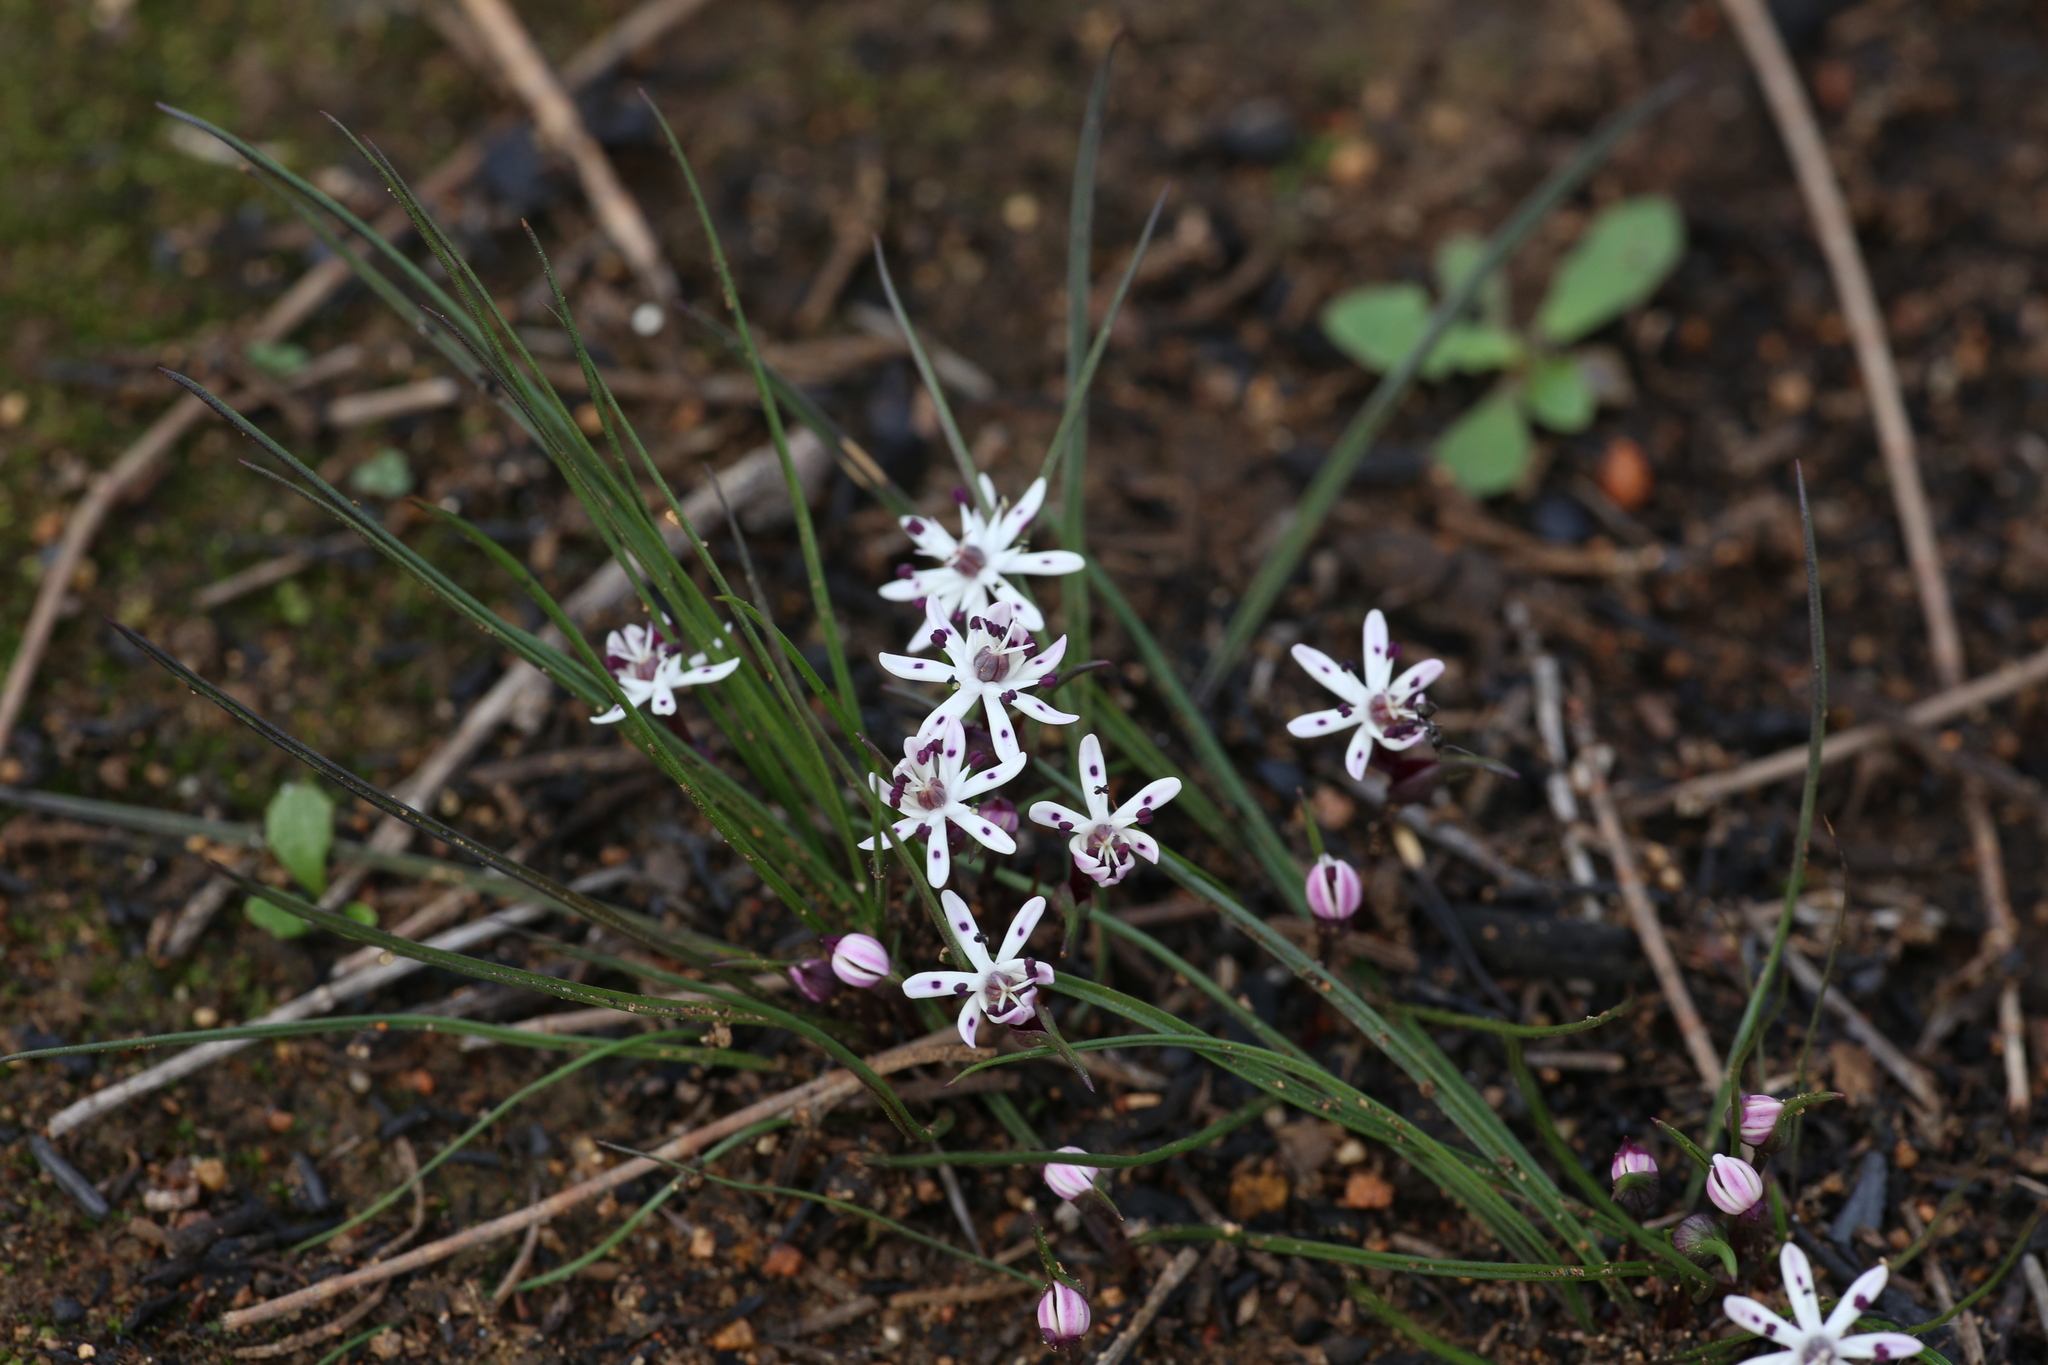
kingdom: Plantae
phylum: Tracheophyta
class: Liliopsida
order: Liliales
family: Colchicaceae
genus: Wurmbea
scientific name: Wurmbea tenella
